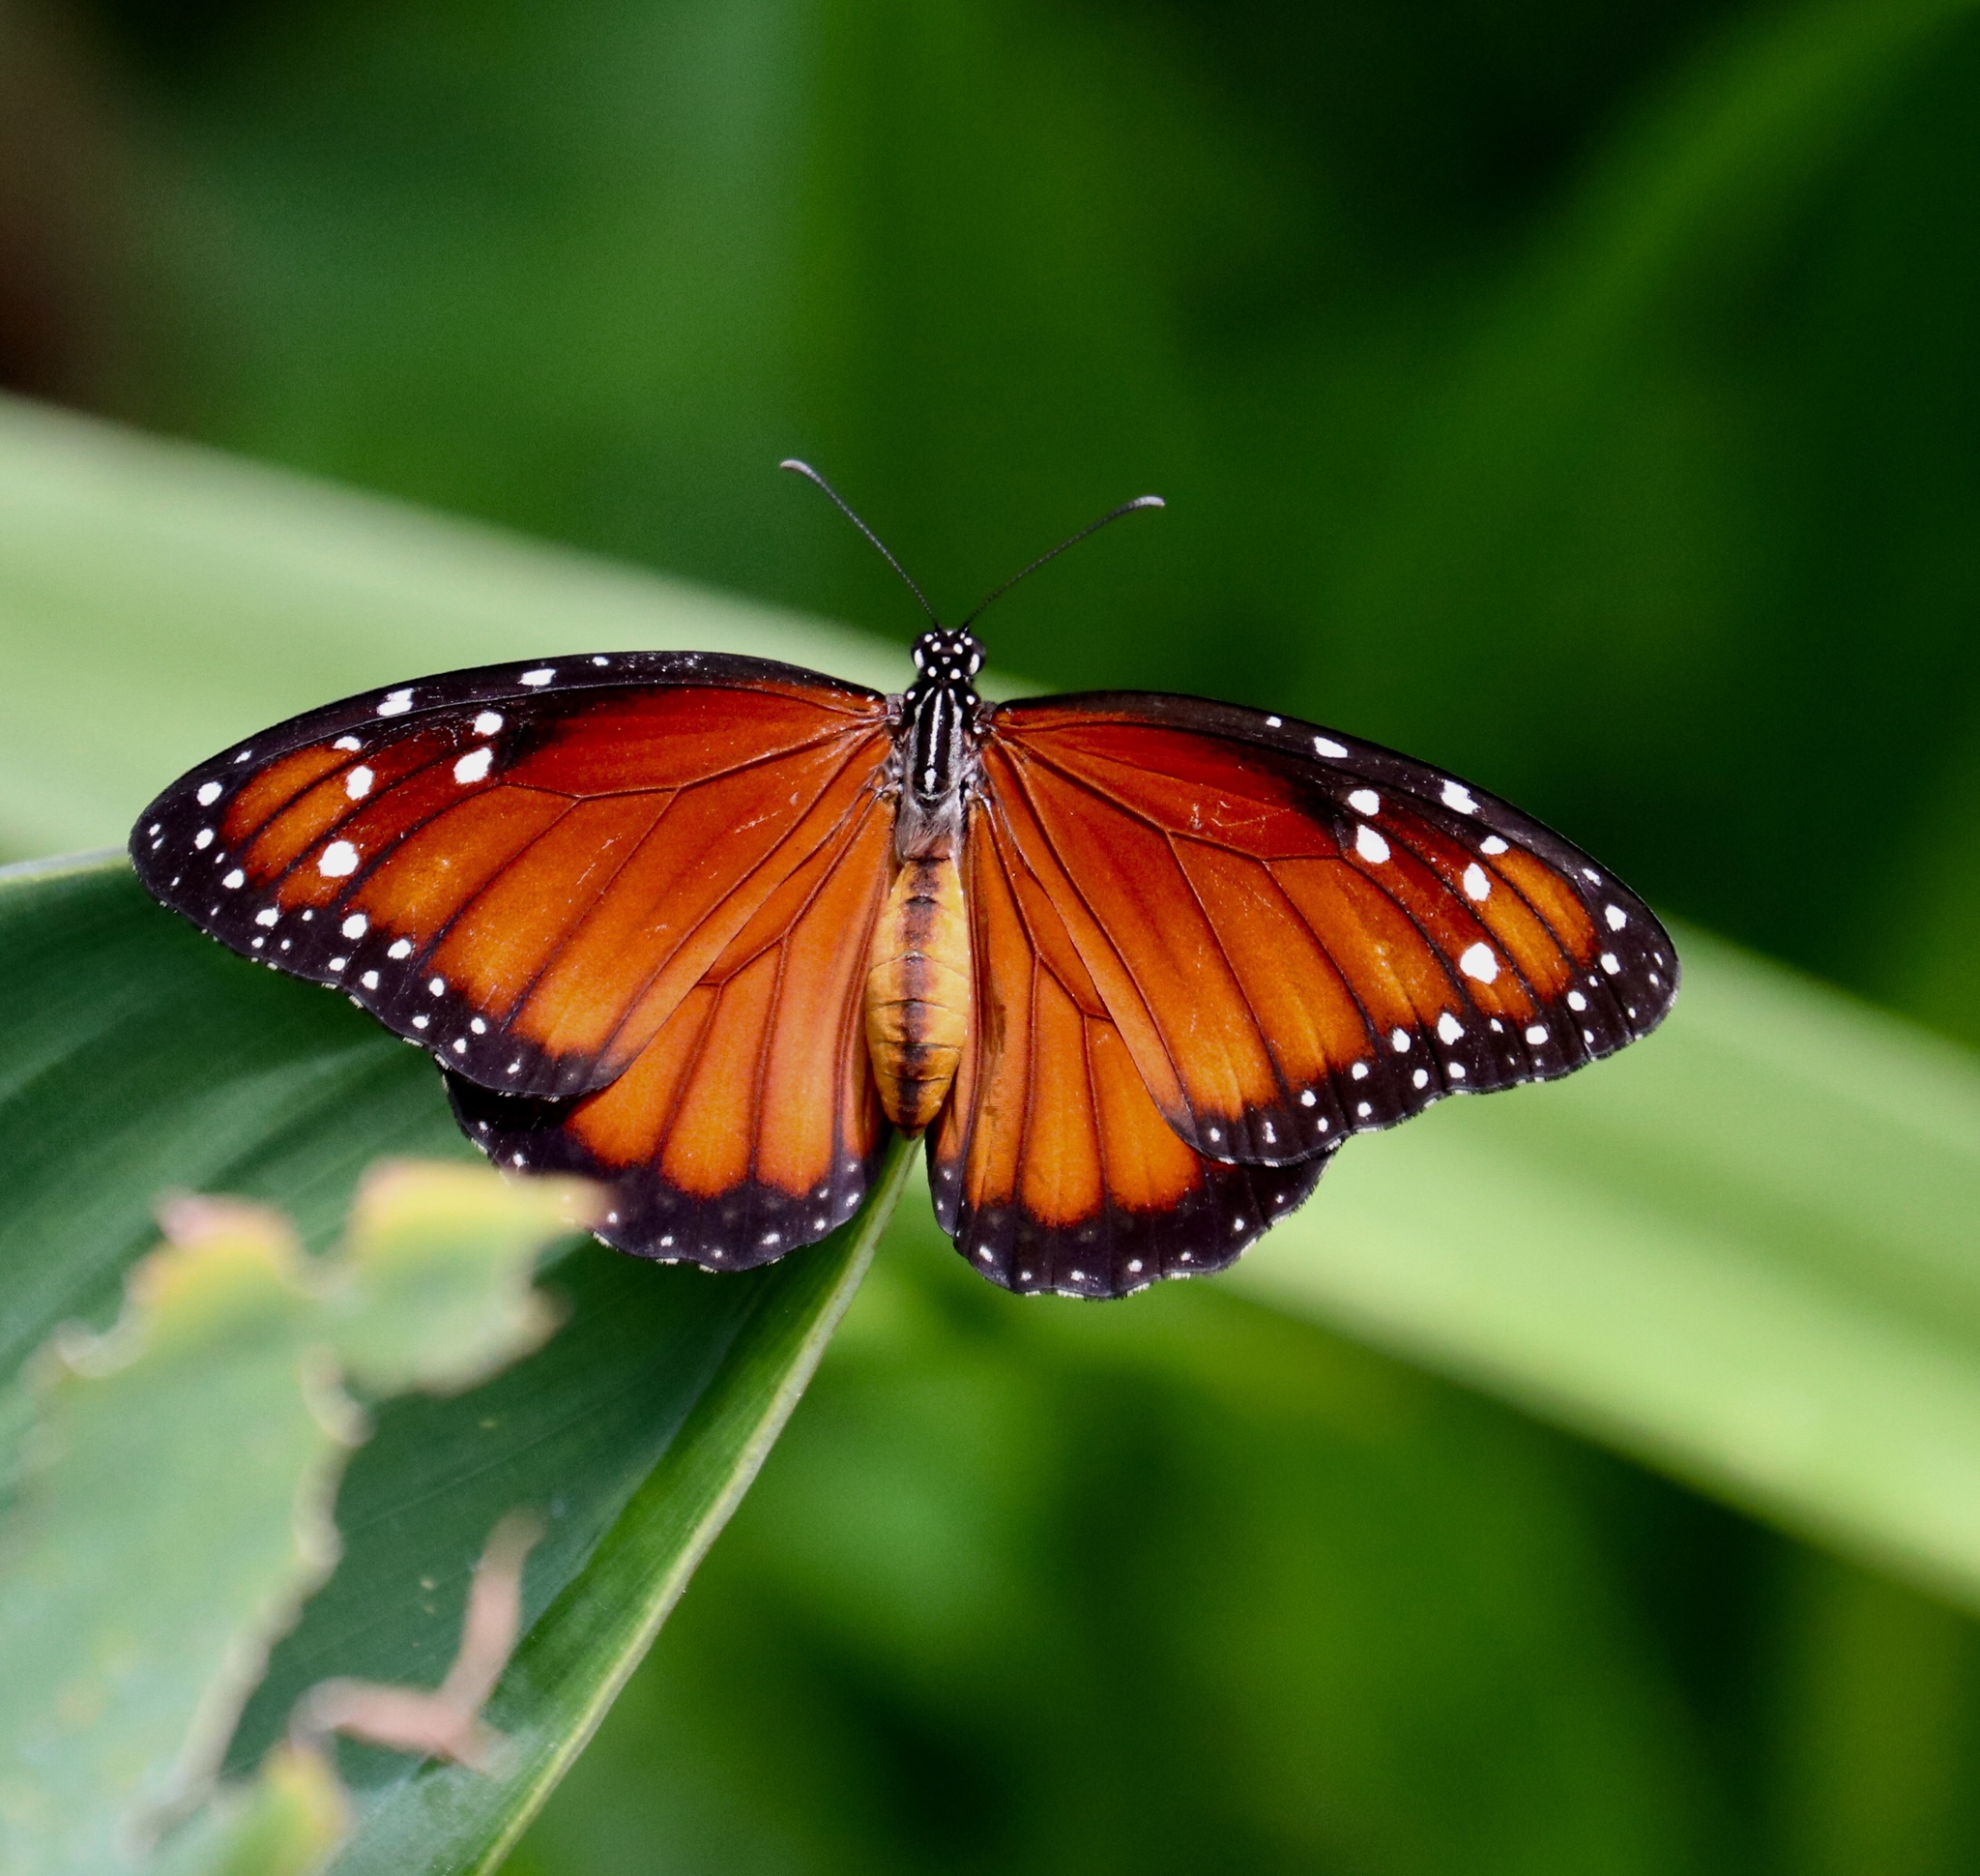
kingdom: Animalia
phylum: Arthropoda
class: Insecta
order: Lepidoptera
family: Nymphalidae
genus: Danaus
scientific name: Danaus eresimus
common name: Soldier
